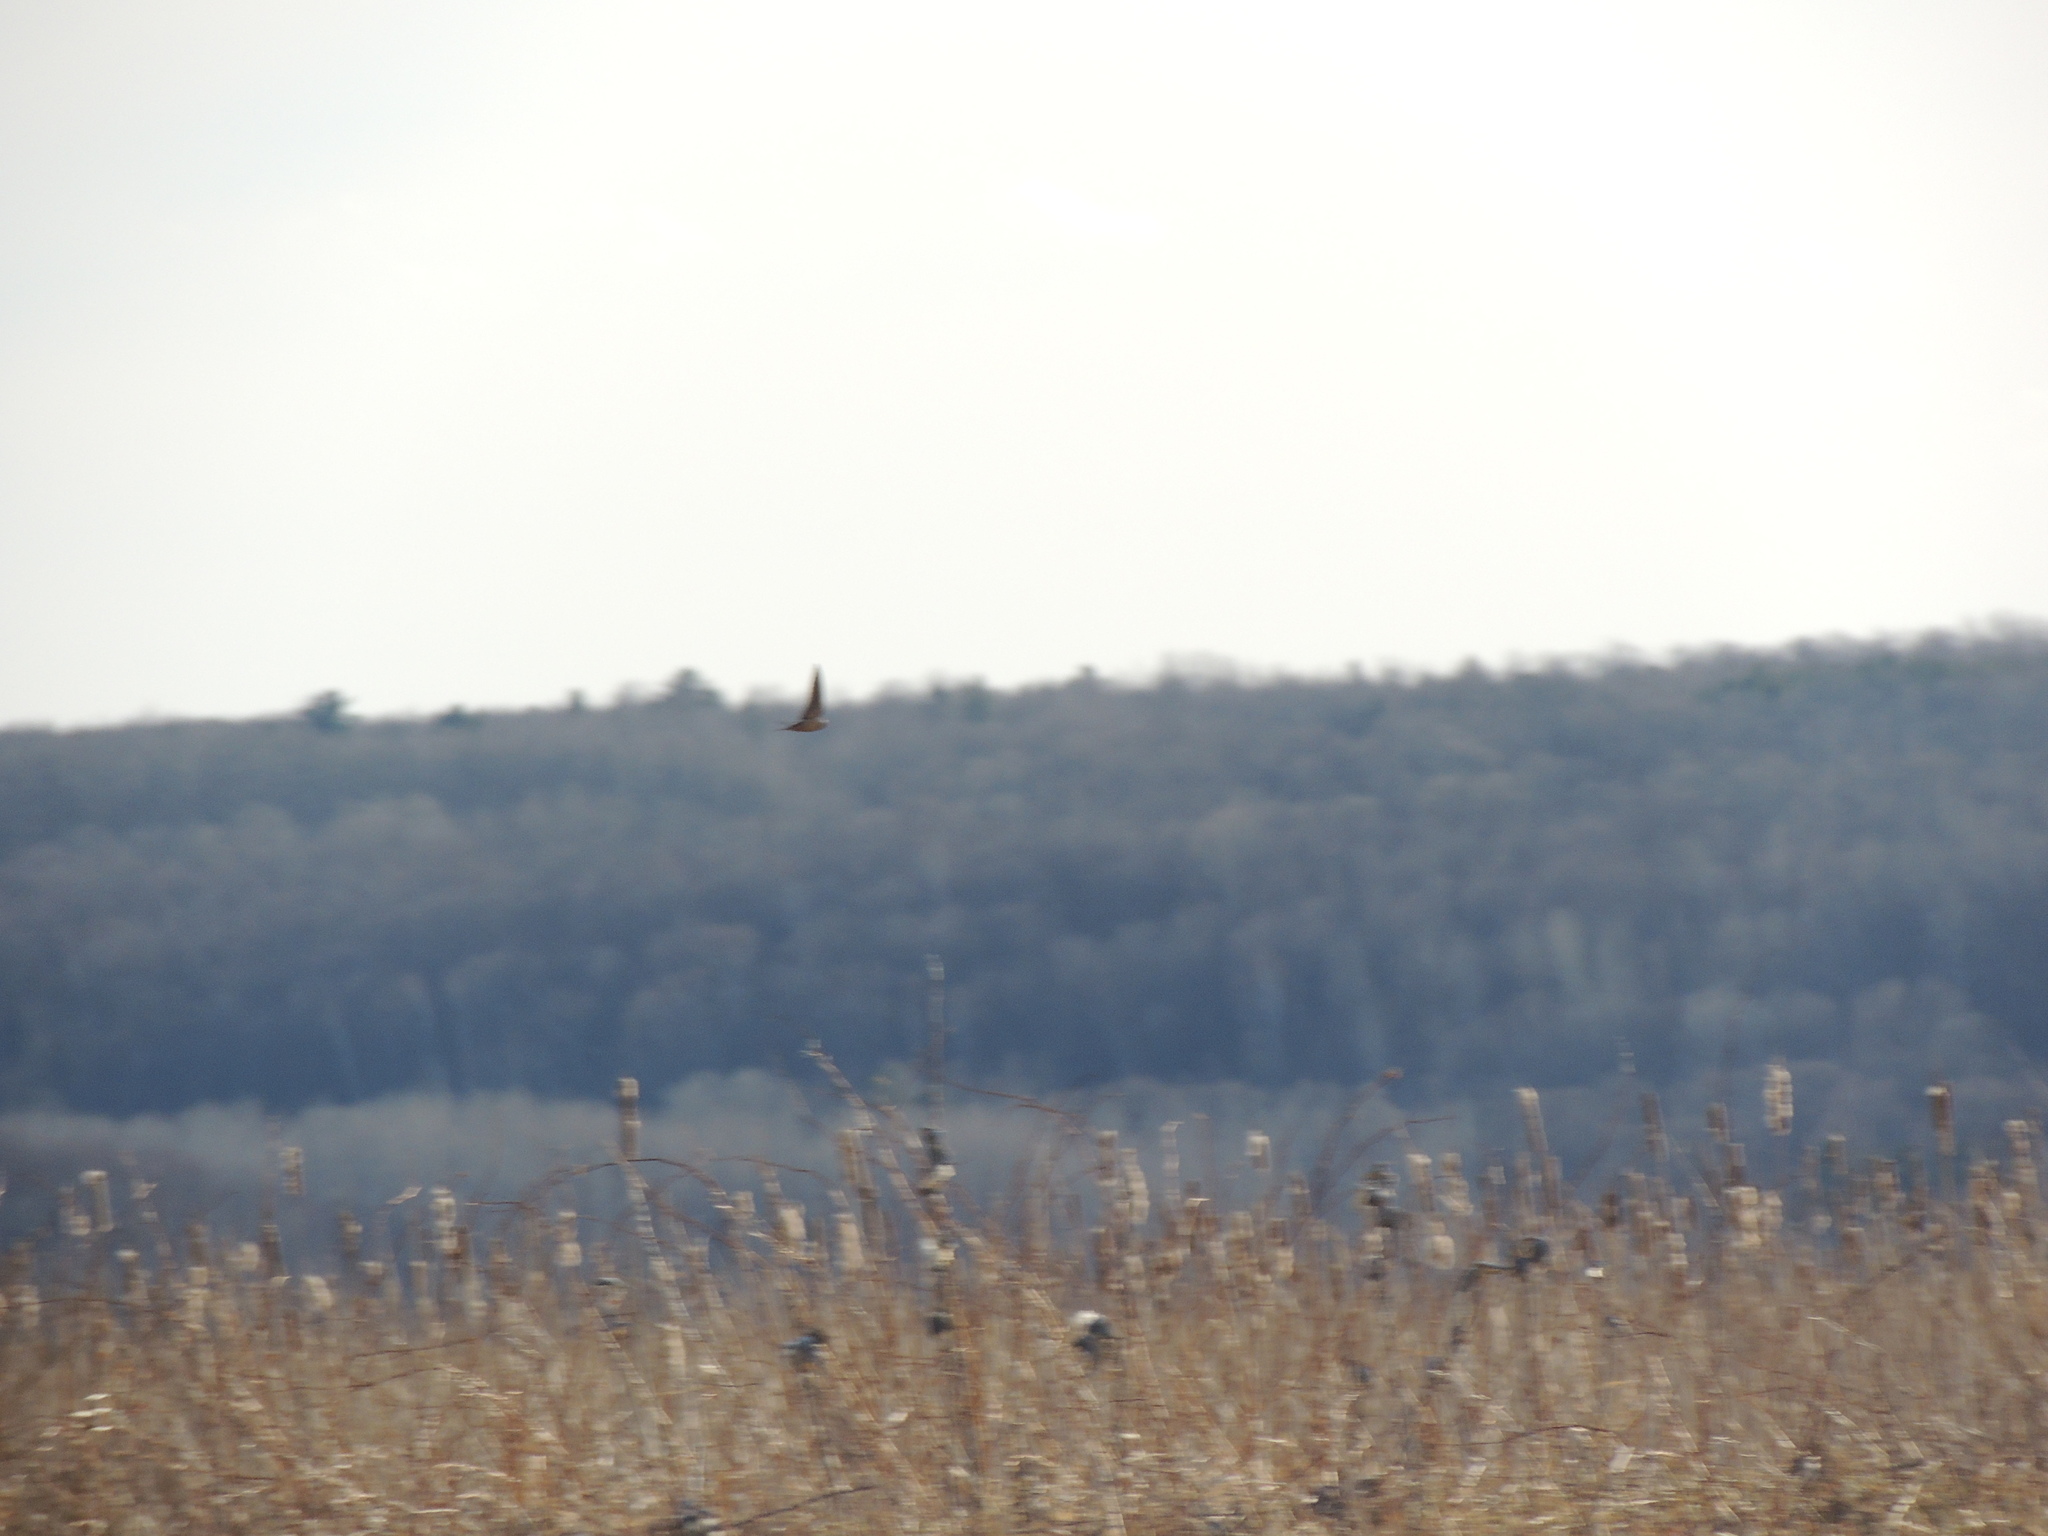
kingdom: Animalia
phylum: Chordata
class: Aves
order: Passeriformes
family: Hirundinidae
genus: Hirundo
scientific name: Hirundo rustica
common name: Barn swallow
